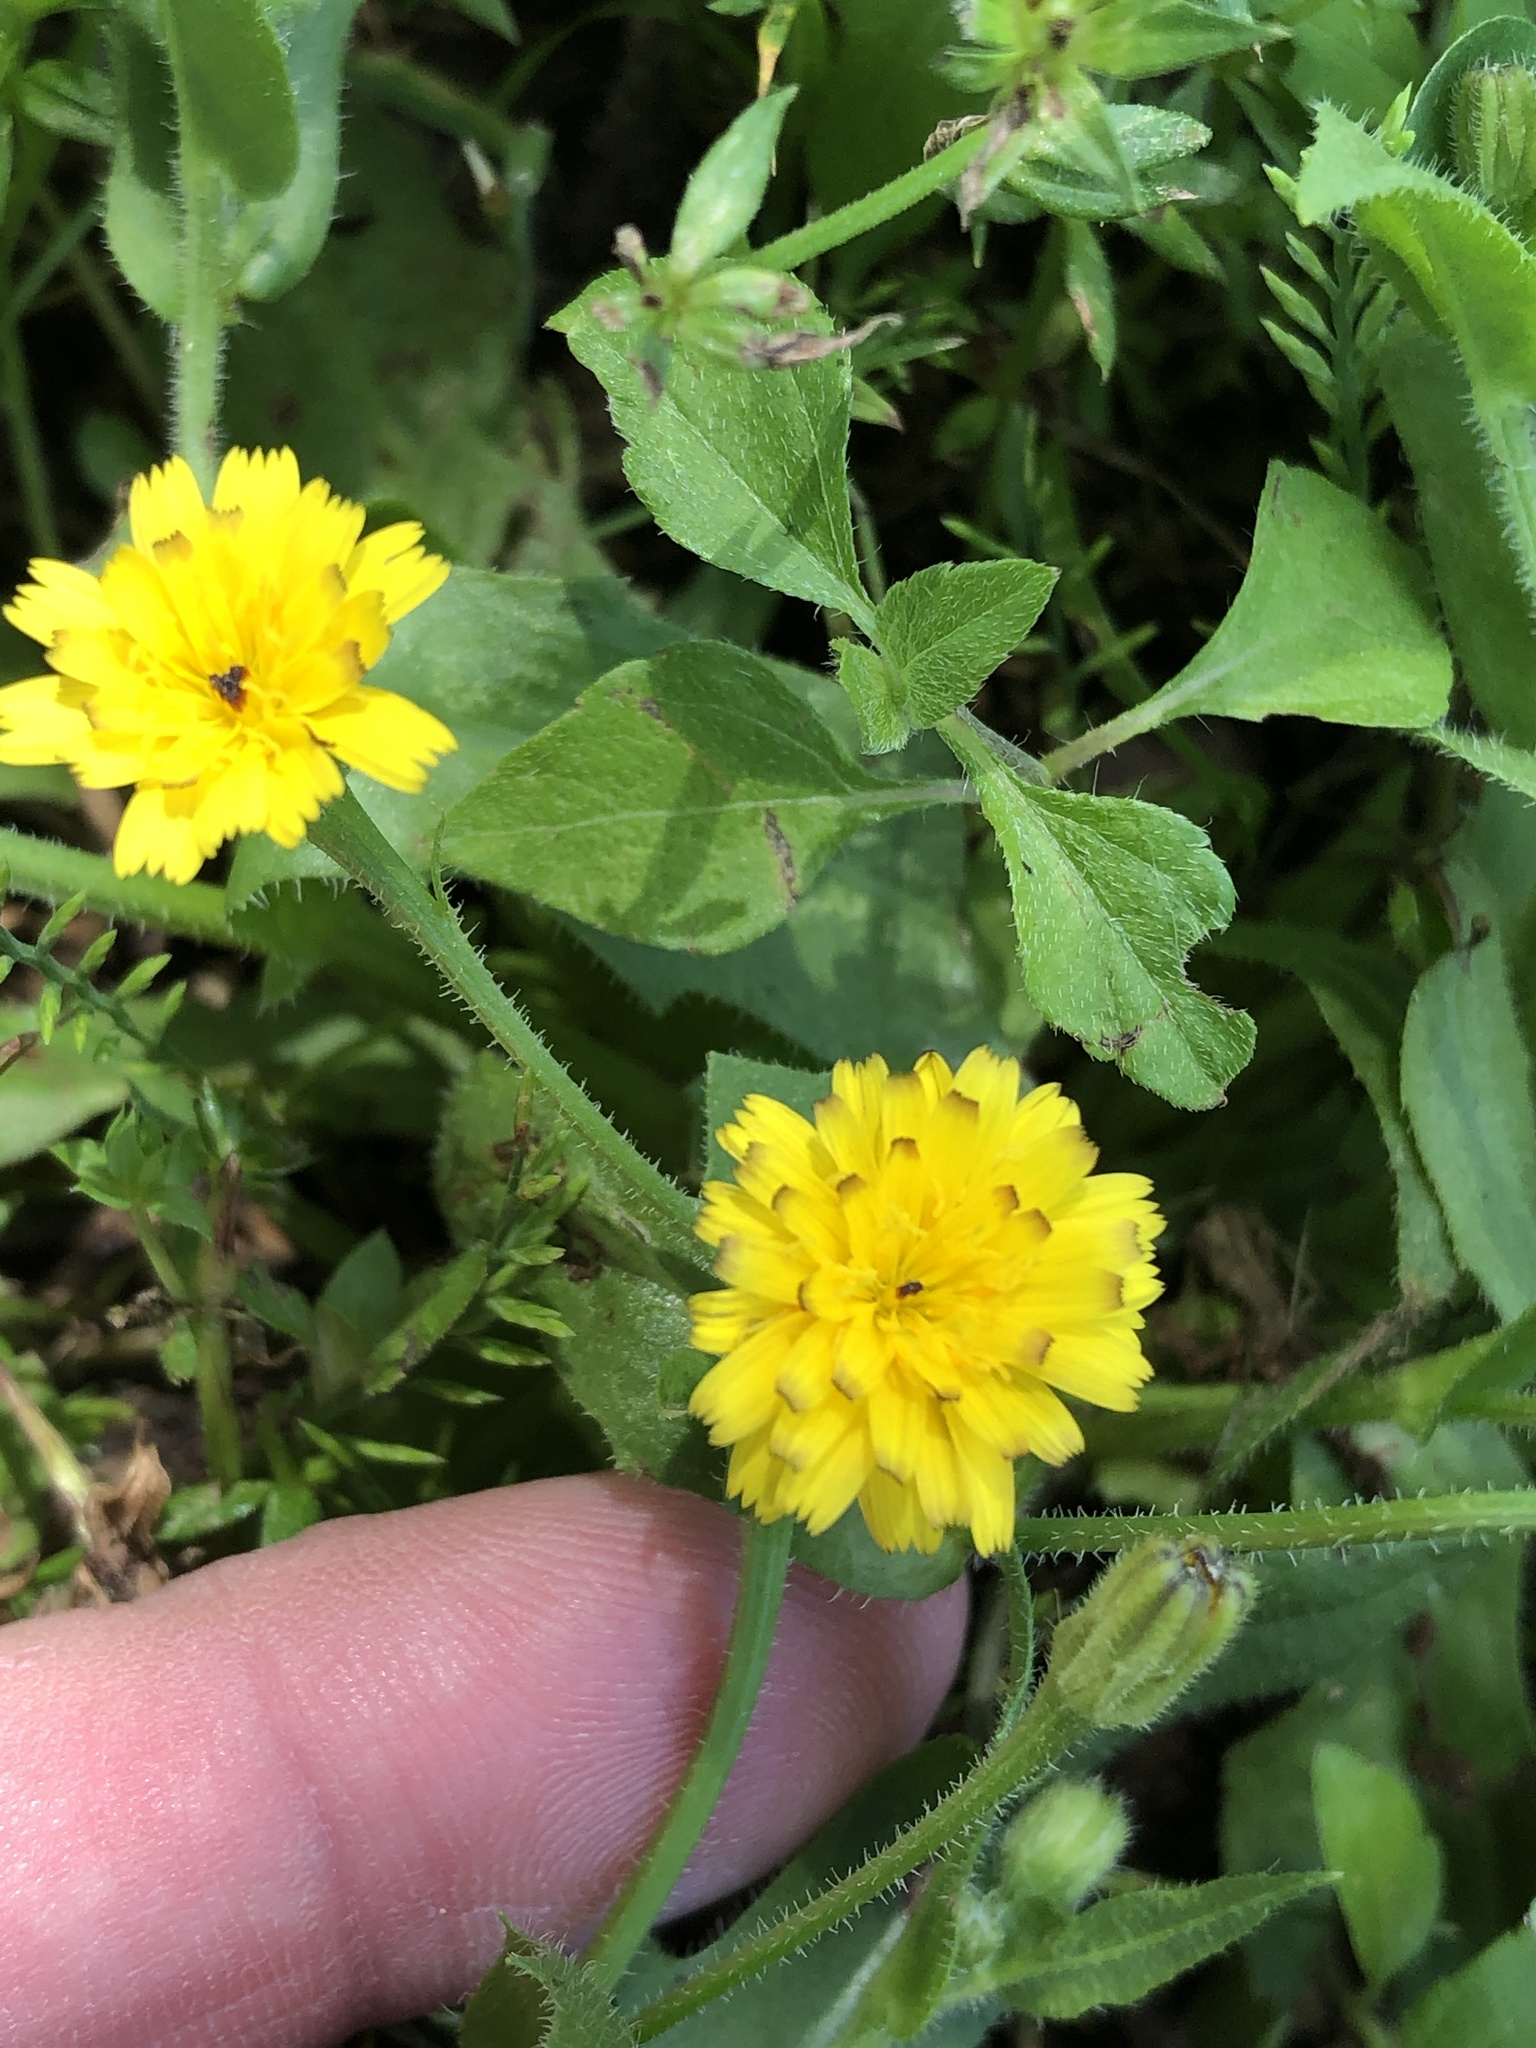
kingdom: Plantae
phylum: Tracheophyta
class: Magnoliopsida
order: Asterales
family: Asteraceae
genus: Hedypnois
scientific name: Hedypnois rhagadioloides
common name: Cretan weed
